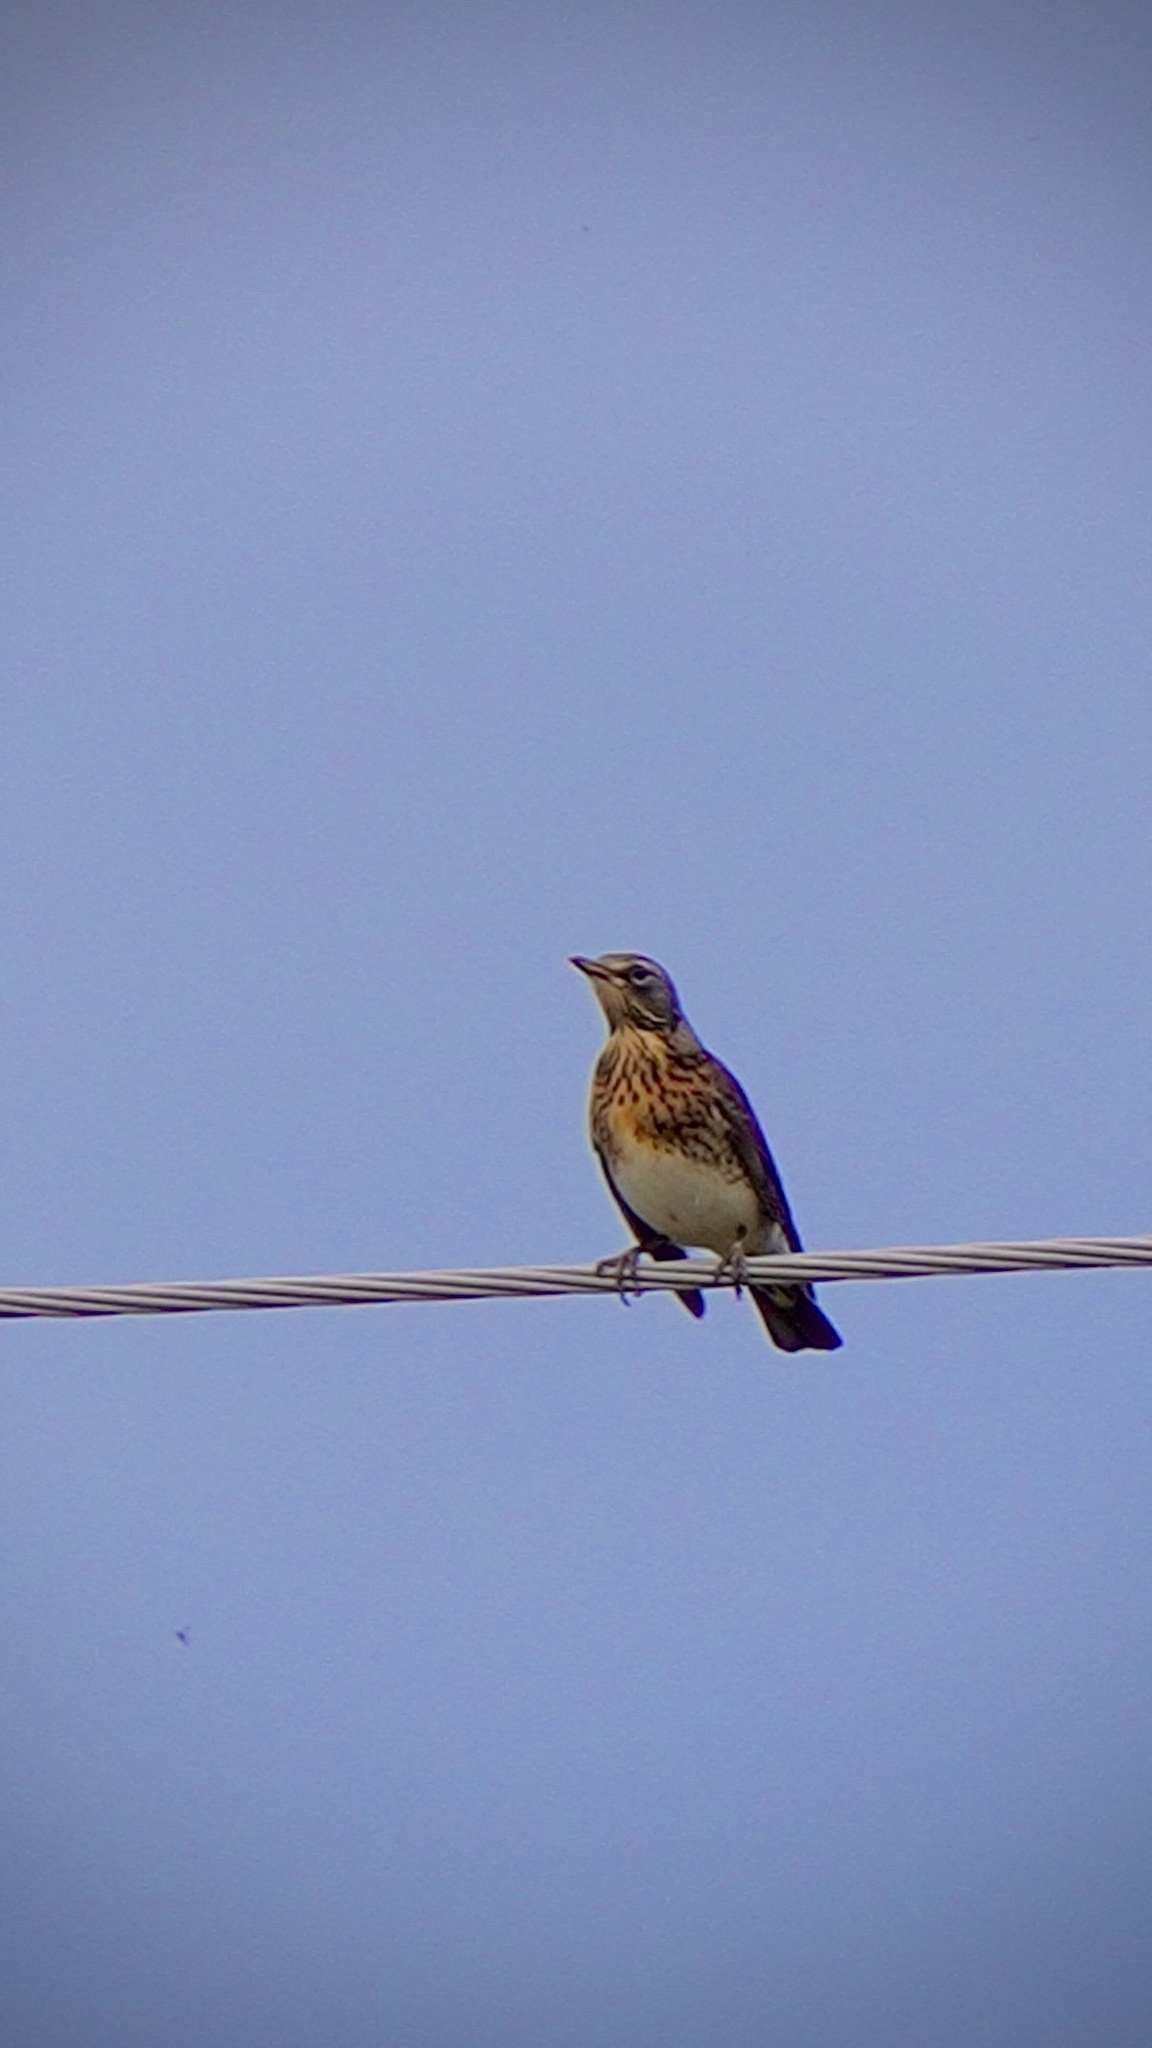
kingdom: Animalia
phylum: Chordata
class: Aves
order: Passeriformes
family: Turdidae
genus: Turdus
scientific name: Turdus pilaris
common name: Fieldfare
